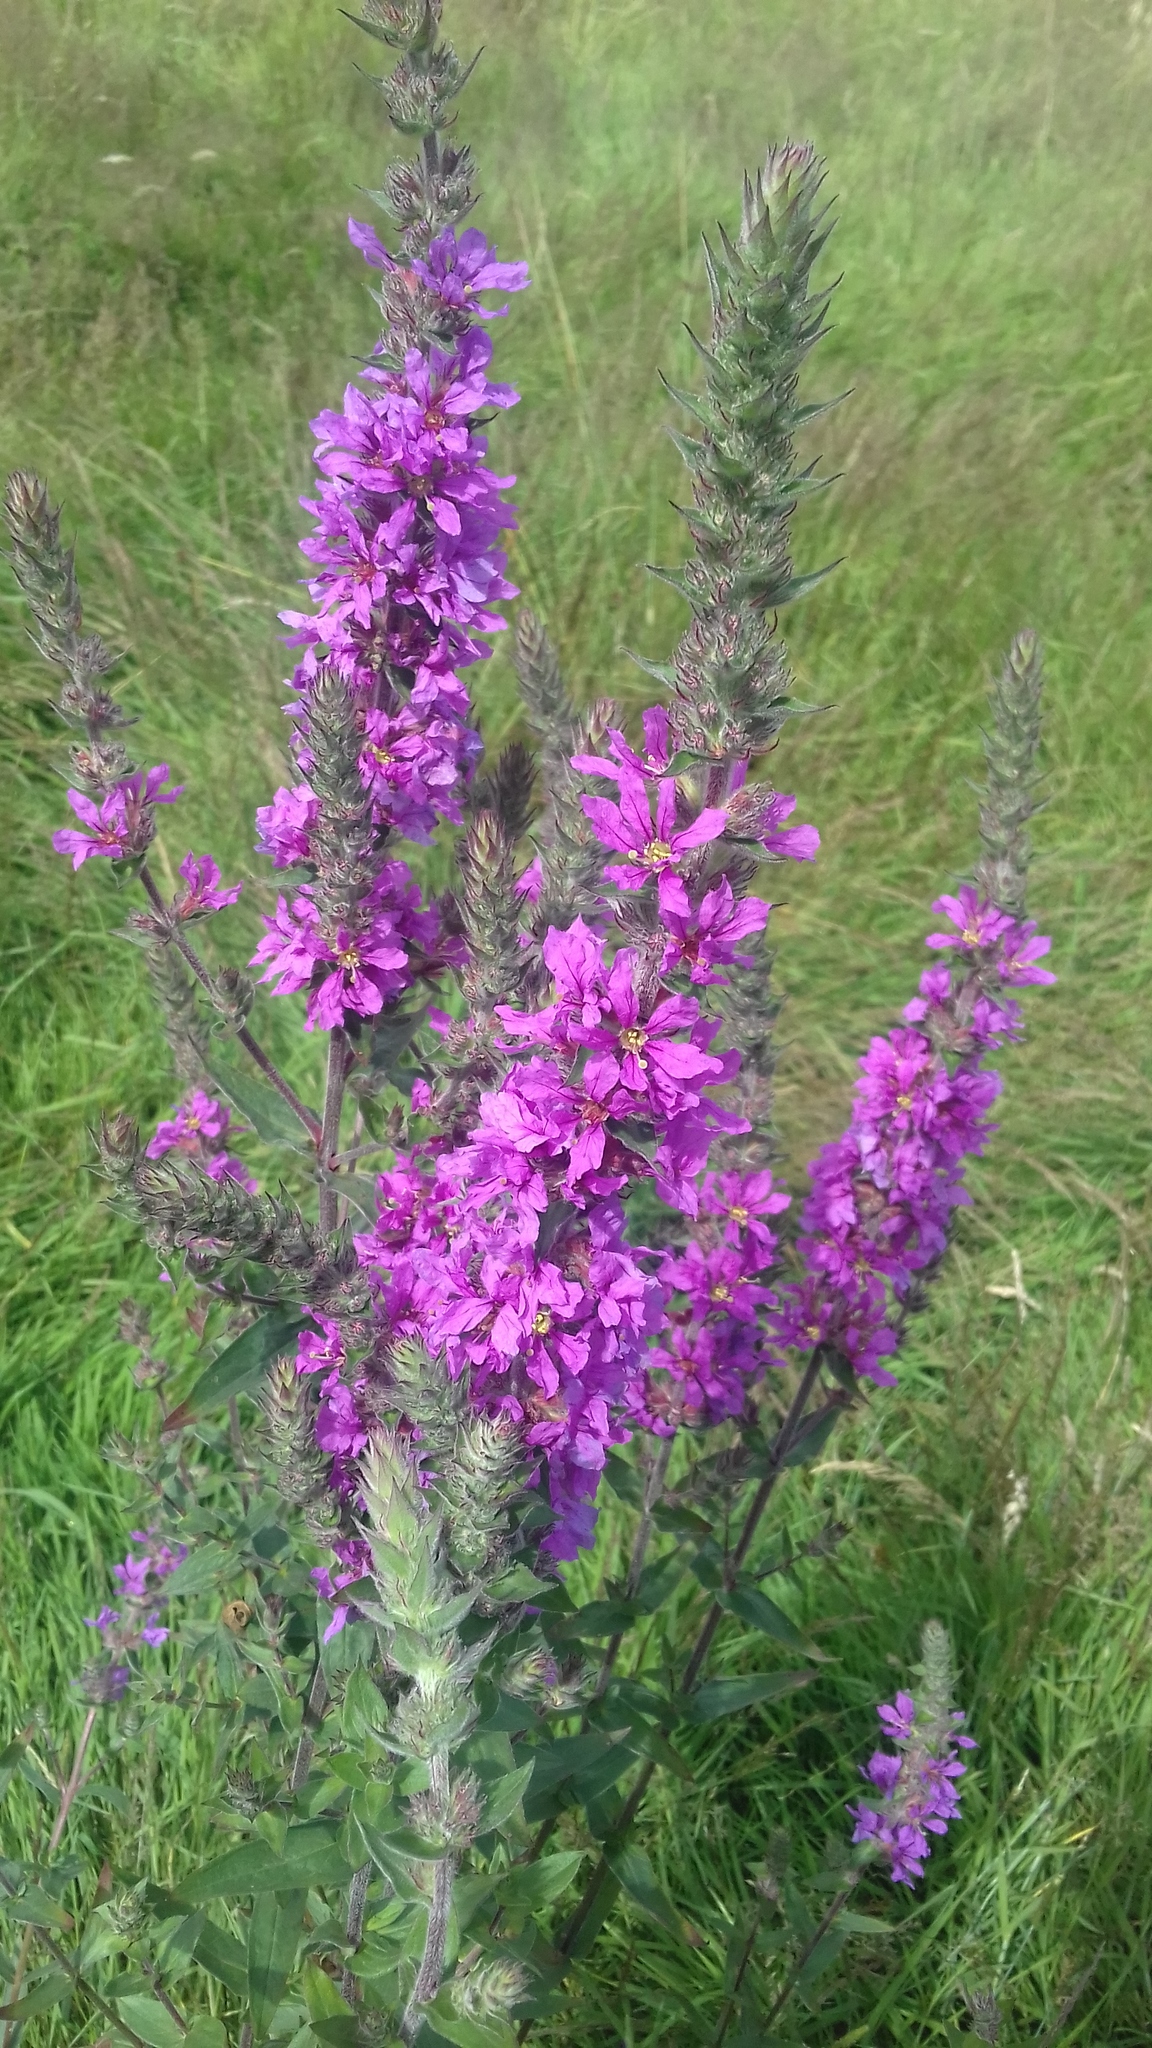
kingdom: Plantae
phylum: Tracheophyta
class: Magnoliopsida
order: Myrtales
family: Lythraceae
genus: Lythrum
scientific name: Lythrum salicaria
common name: Purple loosestrife
